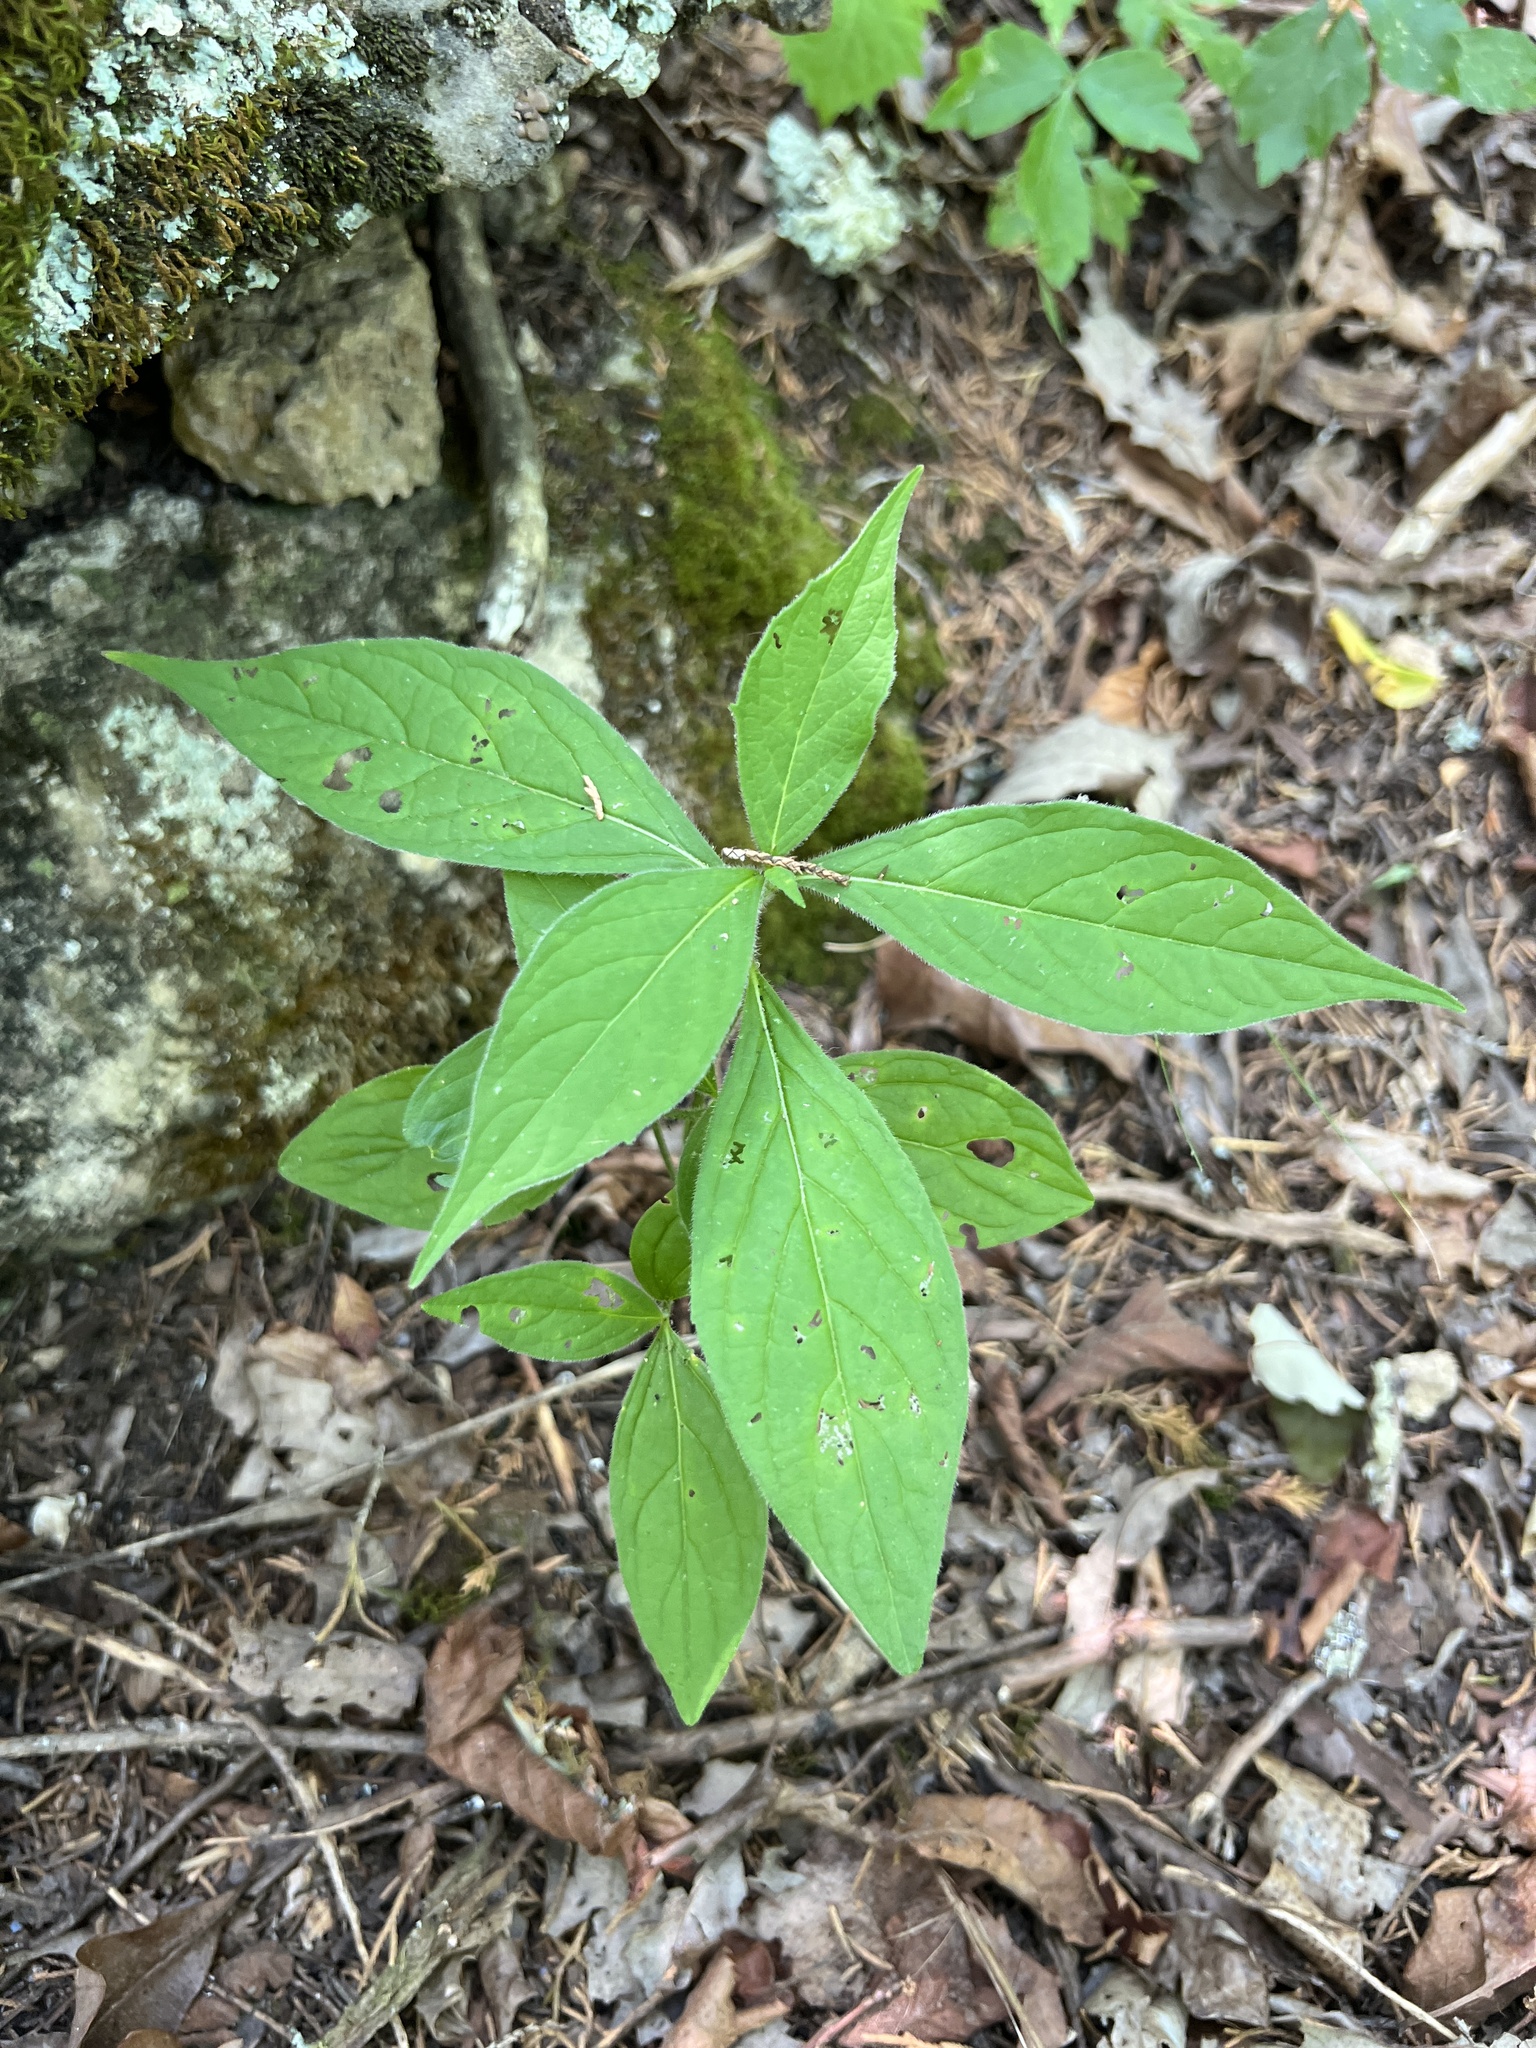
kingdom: Plantae
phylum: Tracheophyta
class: Magnoliopsida
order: Malpighiales
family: Violaceae
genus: Cubelium
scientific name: Cubelium concolor
